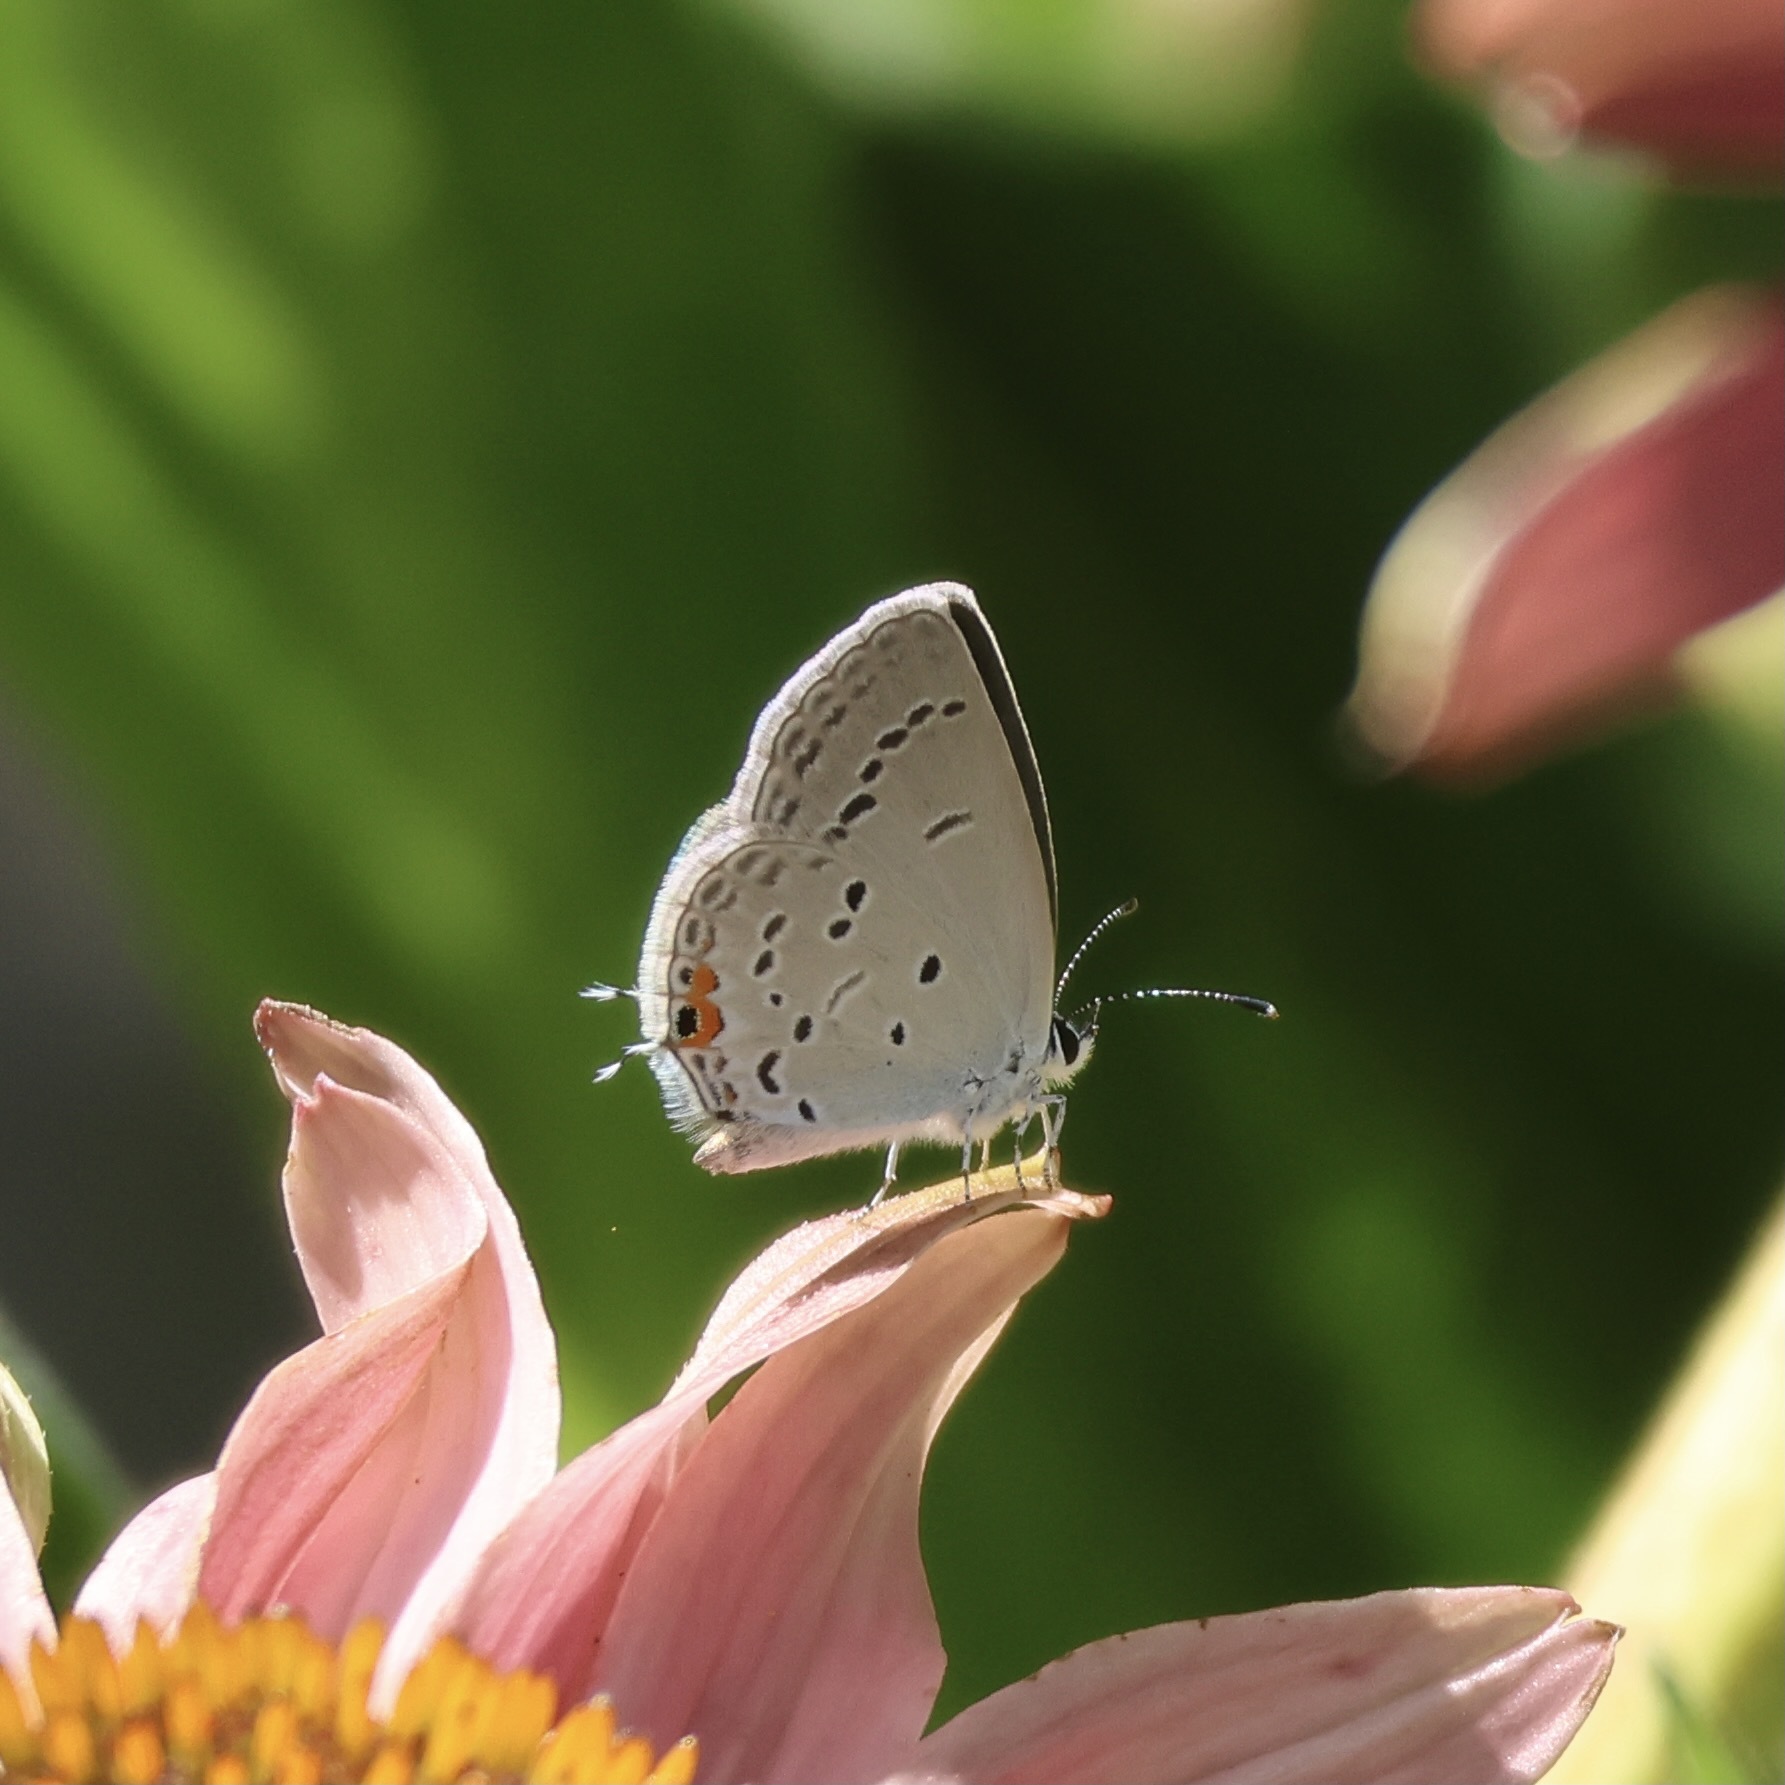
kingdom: Animalia
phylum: Arthropoda
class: Insecta
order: Lepidoptera
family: Lycaenidae
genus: Elkalyce
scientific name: Elkalyce comyntas
